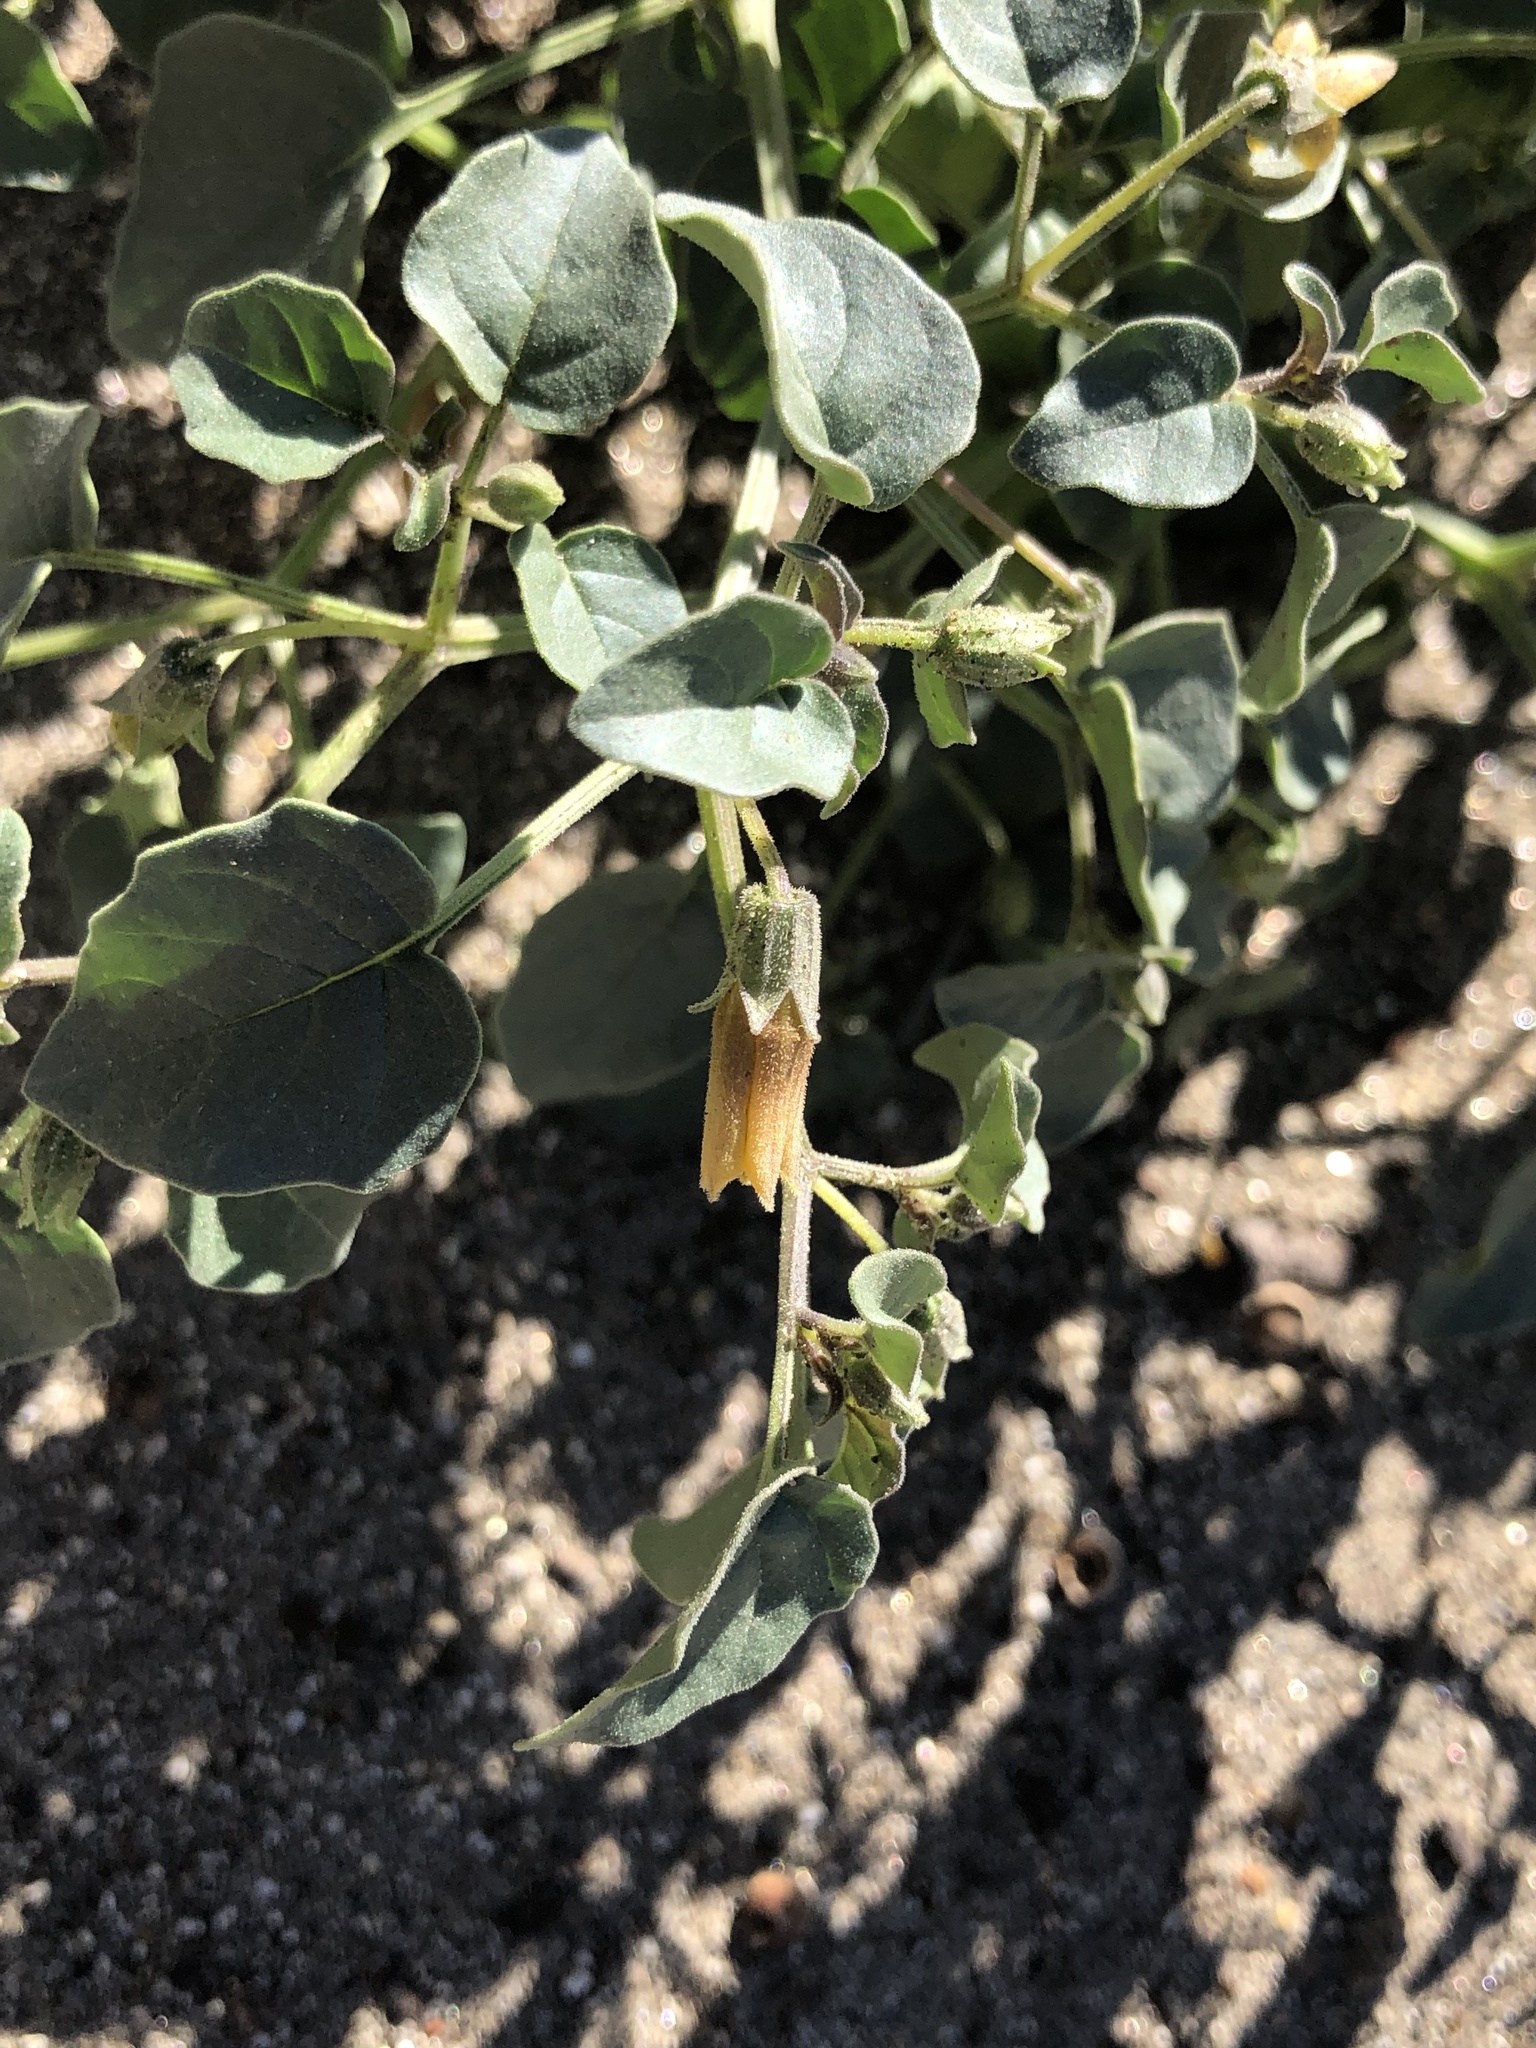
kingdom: Plantae
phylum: Tracheophyta
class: Magnoliopsida
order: Solanales
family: Solanaceae
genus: Physalis
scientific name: Physalis crassifolia
